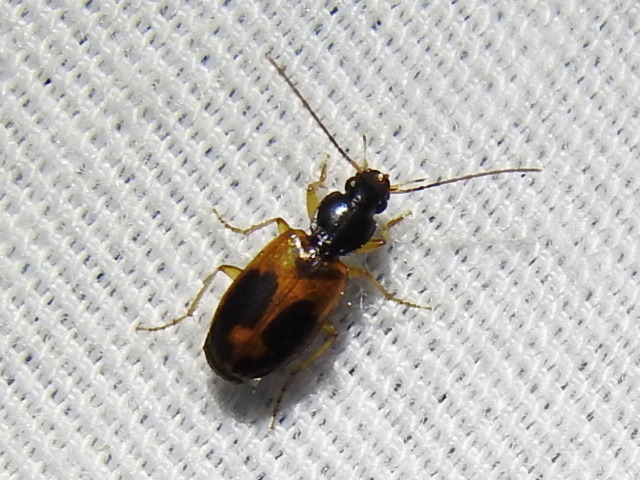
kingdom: Animalia
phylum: Arthropoda
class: Insecta
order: Coleoptera
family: Carabidae
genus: Badister
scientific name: Badister elegans
